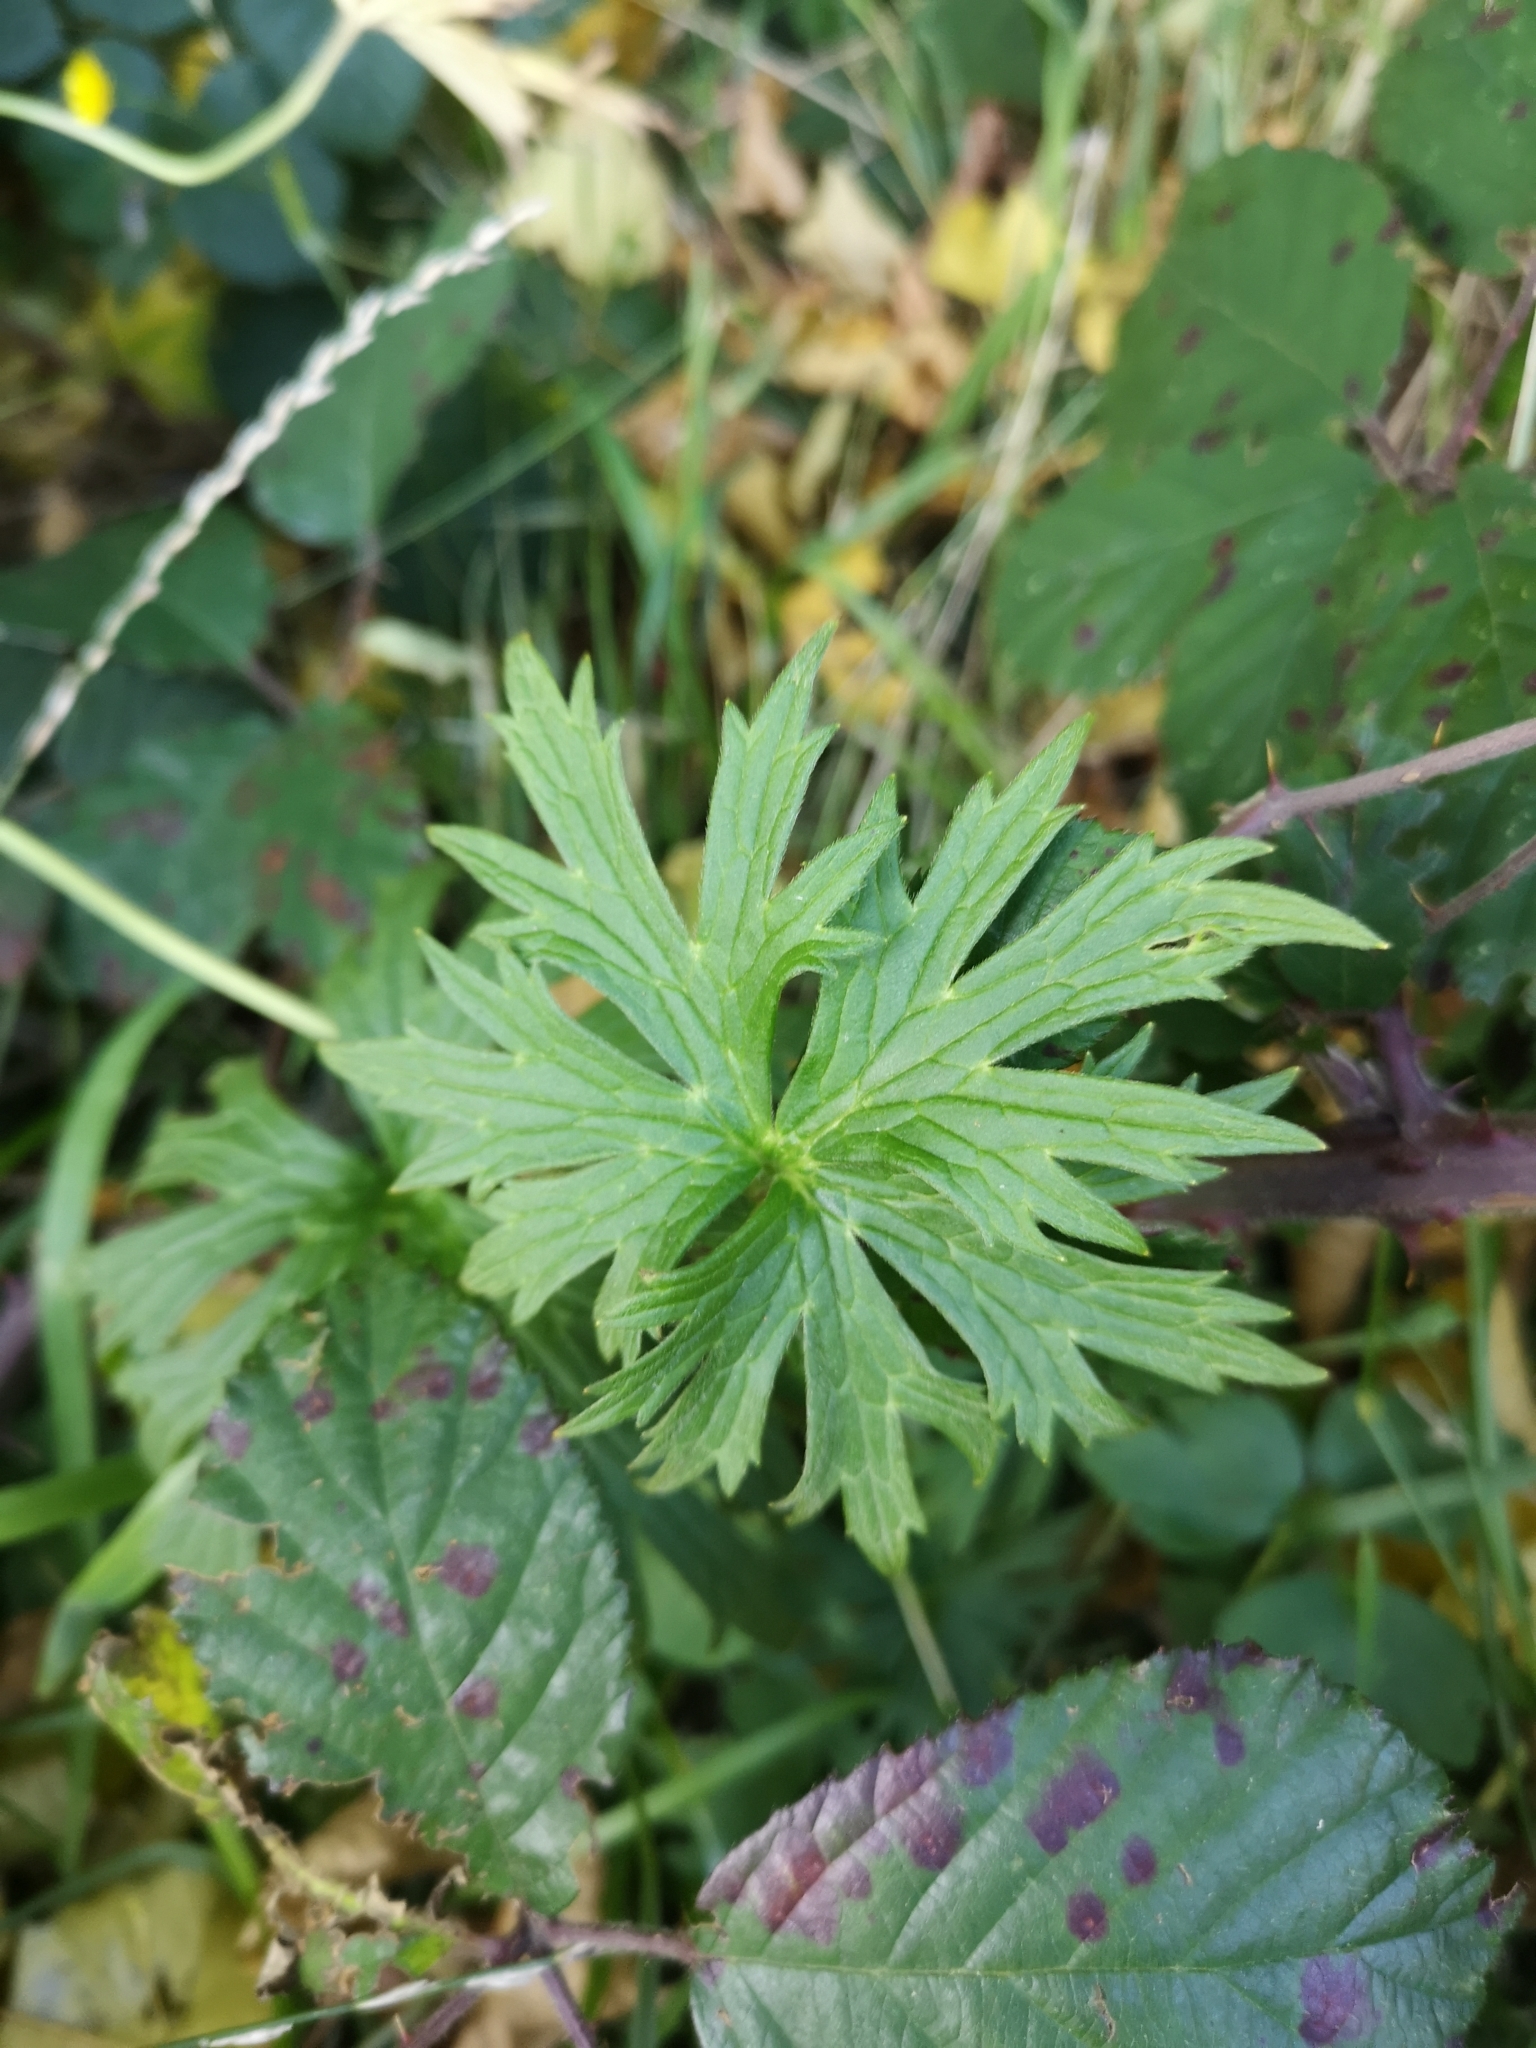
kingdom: Plantae
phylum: Tracheophyta
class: Magnoliopsida
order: Ranunculales
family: Ranunculaceae
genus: Ranunculus
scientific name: Ranunculus acris
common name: Meadow buttercup
